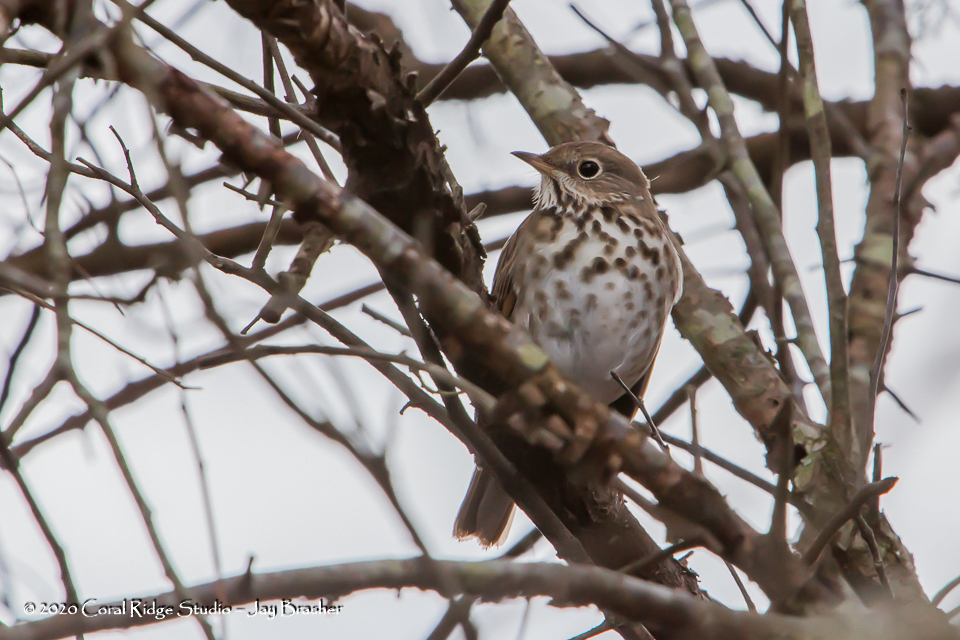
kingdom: Animalia
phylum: Chordata
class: Aves
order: Passeriformes
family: Turdidae
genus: Catharus
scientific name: Catharus guttatus
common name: Hermit thrush
